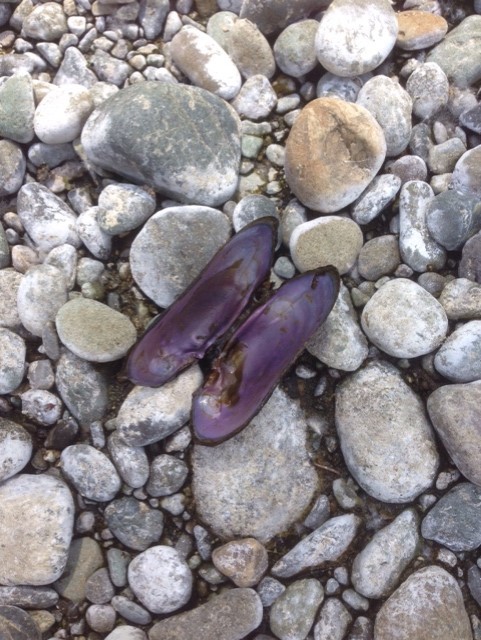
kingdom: Animalia
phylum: Mollusca
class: Bivalvia
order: Unionida
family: Margaritiferidae
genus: Margaritifera
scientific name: Margaritifera falcata
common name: Western pearlshell
